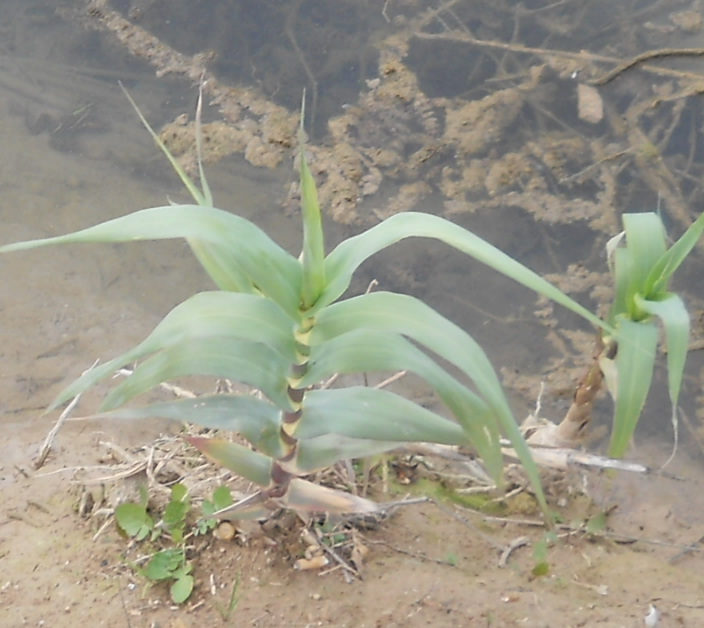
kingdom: Plantae
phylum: Tracheophyta
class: Liliopsida
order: Poales
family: Poaceae
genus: Arundo
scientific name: Arundo donax
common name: Giant reed
